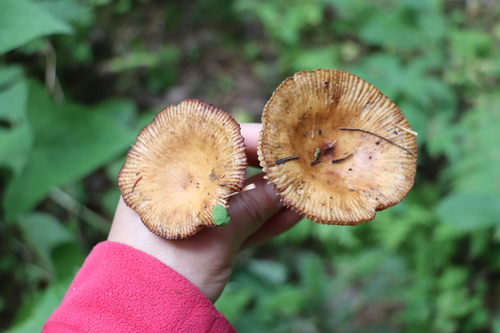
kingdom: Fungi
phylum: Basidiomycota
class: Agaricomycetes
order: Russulales
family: Russulaceae
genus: Russula
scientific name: Russula foetens
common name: Foetid russula
